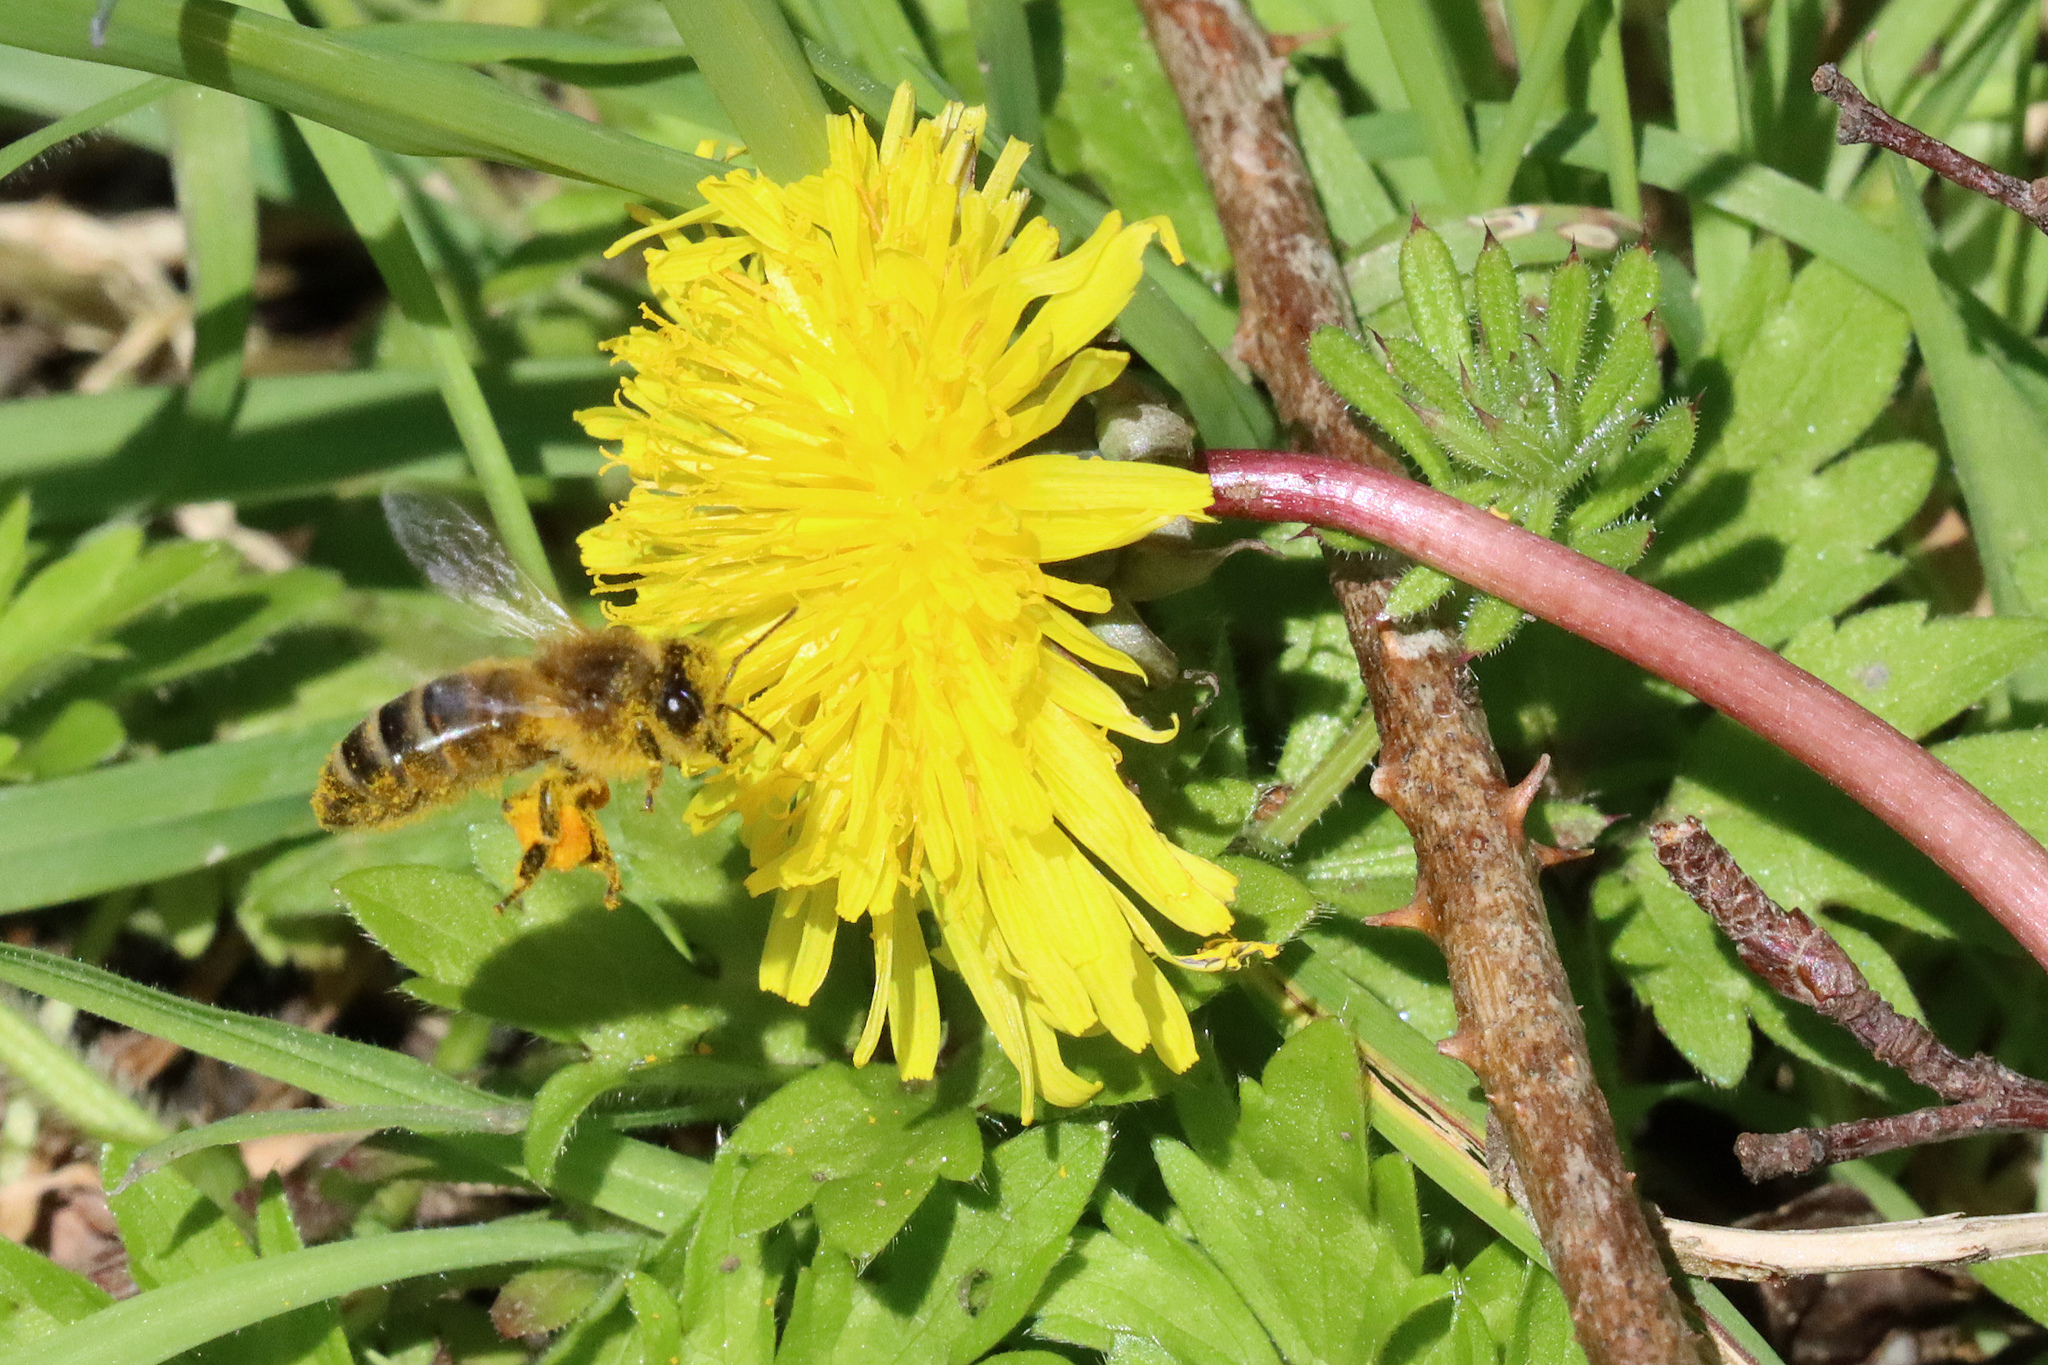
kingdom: Animalia
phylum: Arthropoda
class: Insecta
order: Hymenoptera
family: Apidae
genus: Apis
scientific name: Apis mellifera
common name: Honey bee
